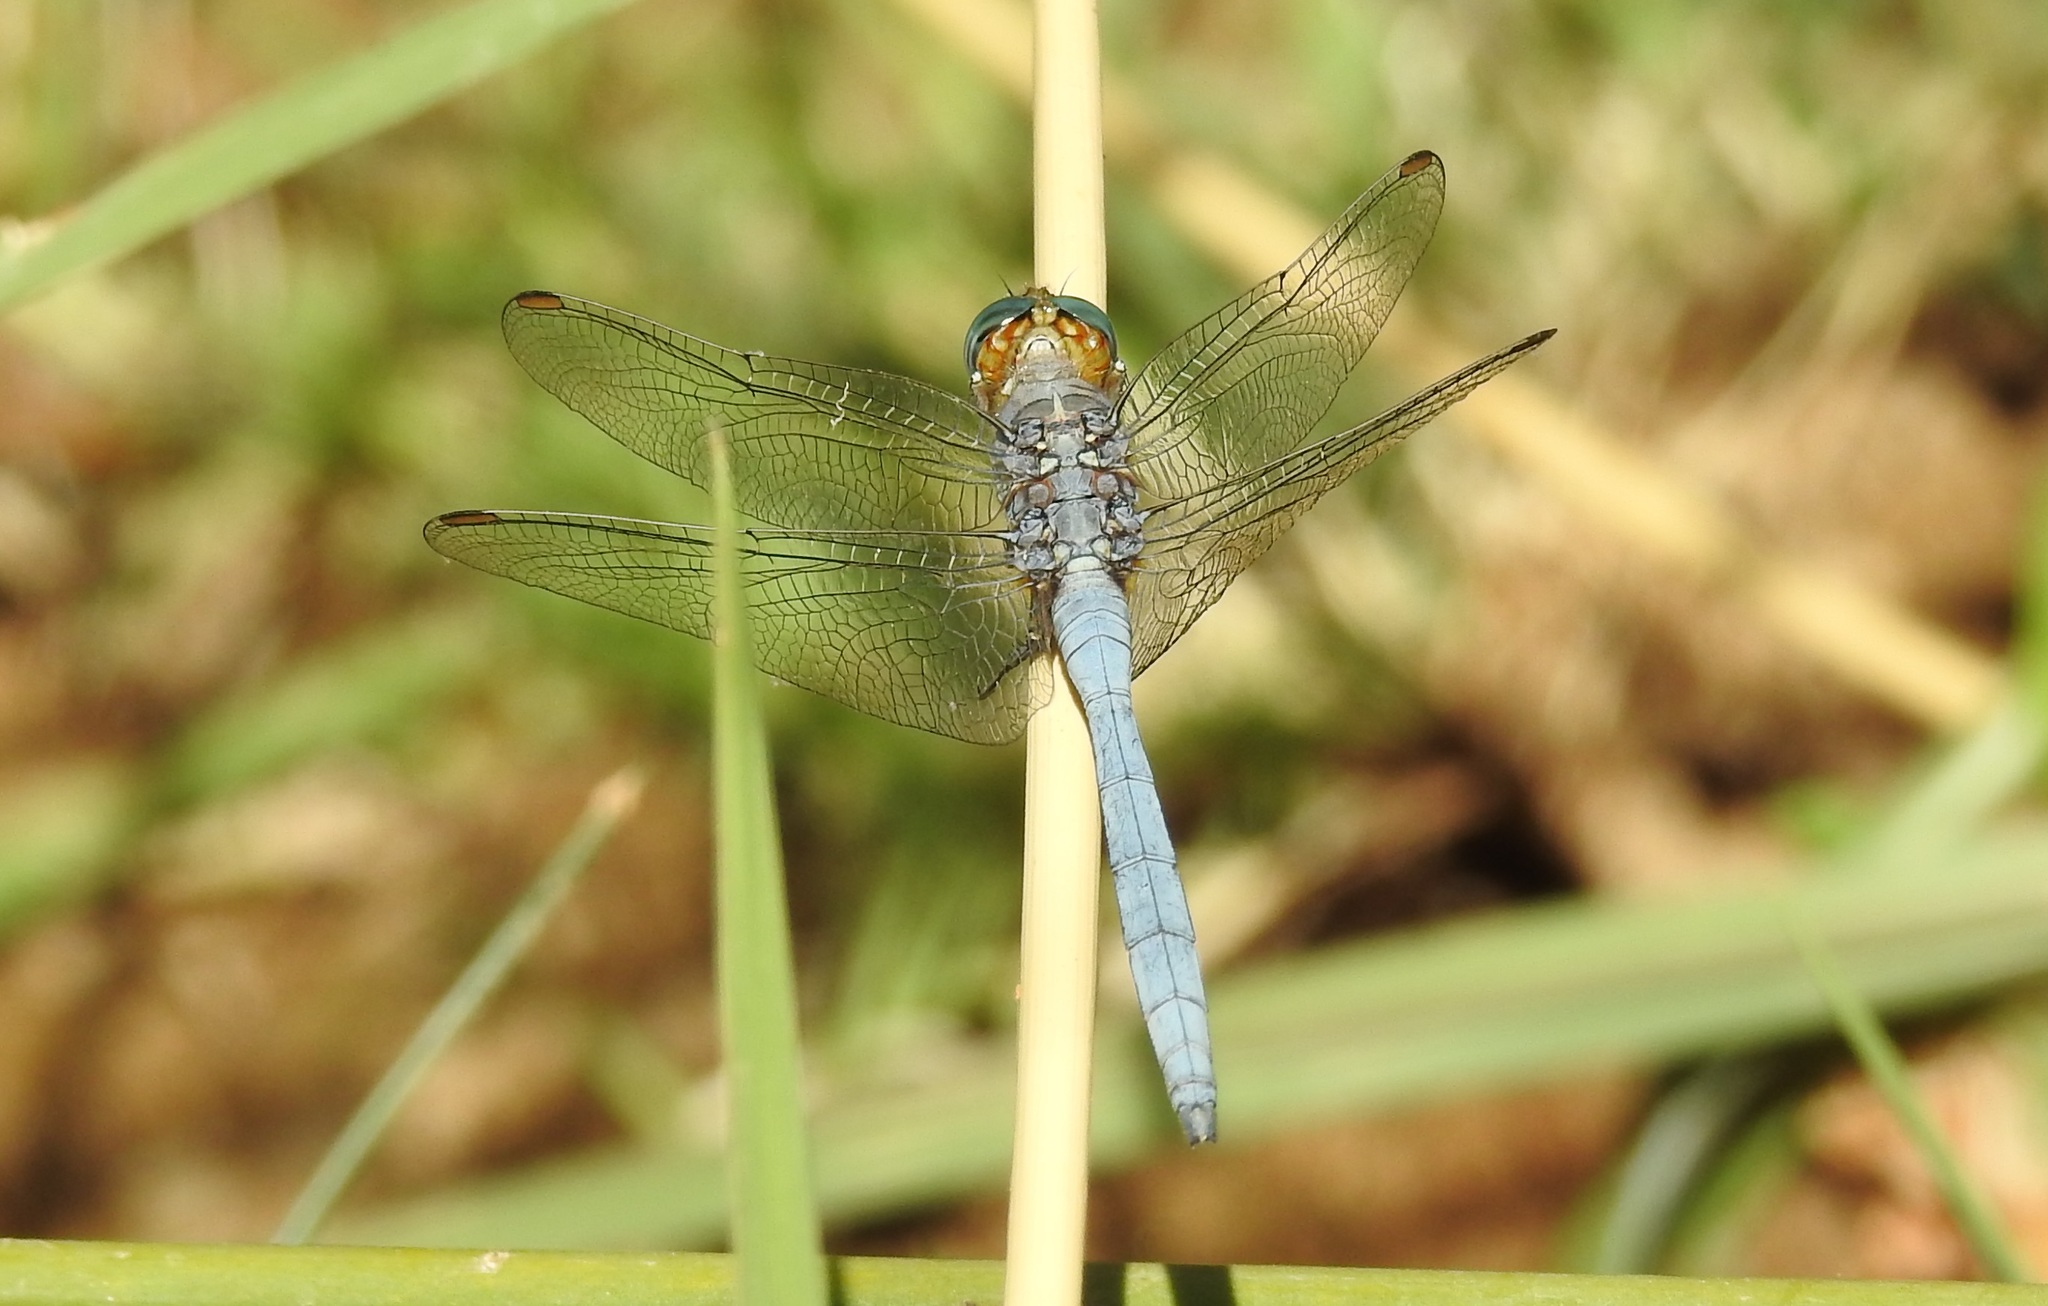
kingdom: Animalia
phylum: Arthropoda
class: Insecta
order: Odonata
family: Libellulidae
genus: Orthetrum
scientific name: Orthetrum chrysostigma
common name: Epaulet skimmer
